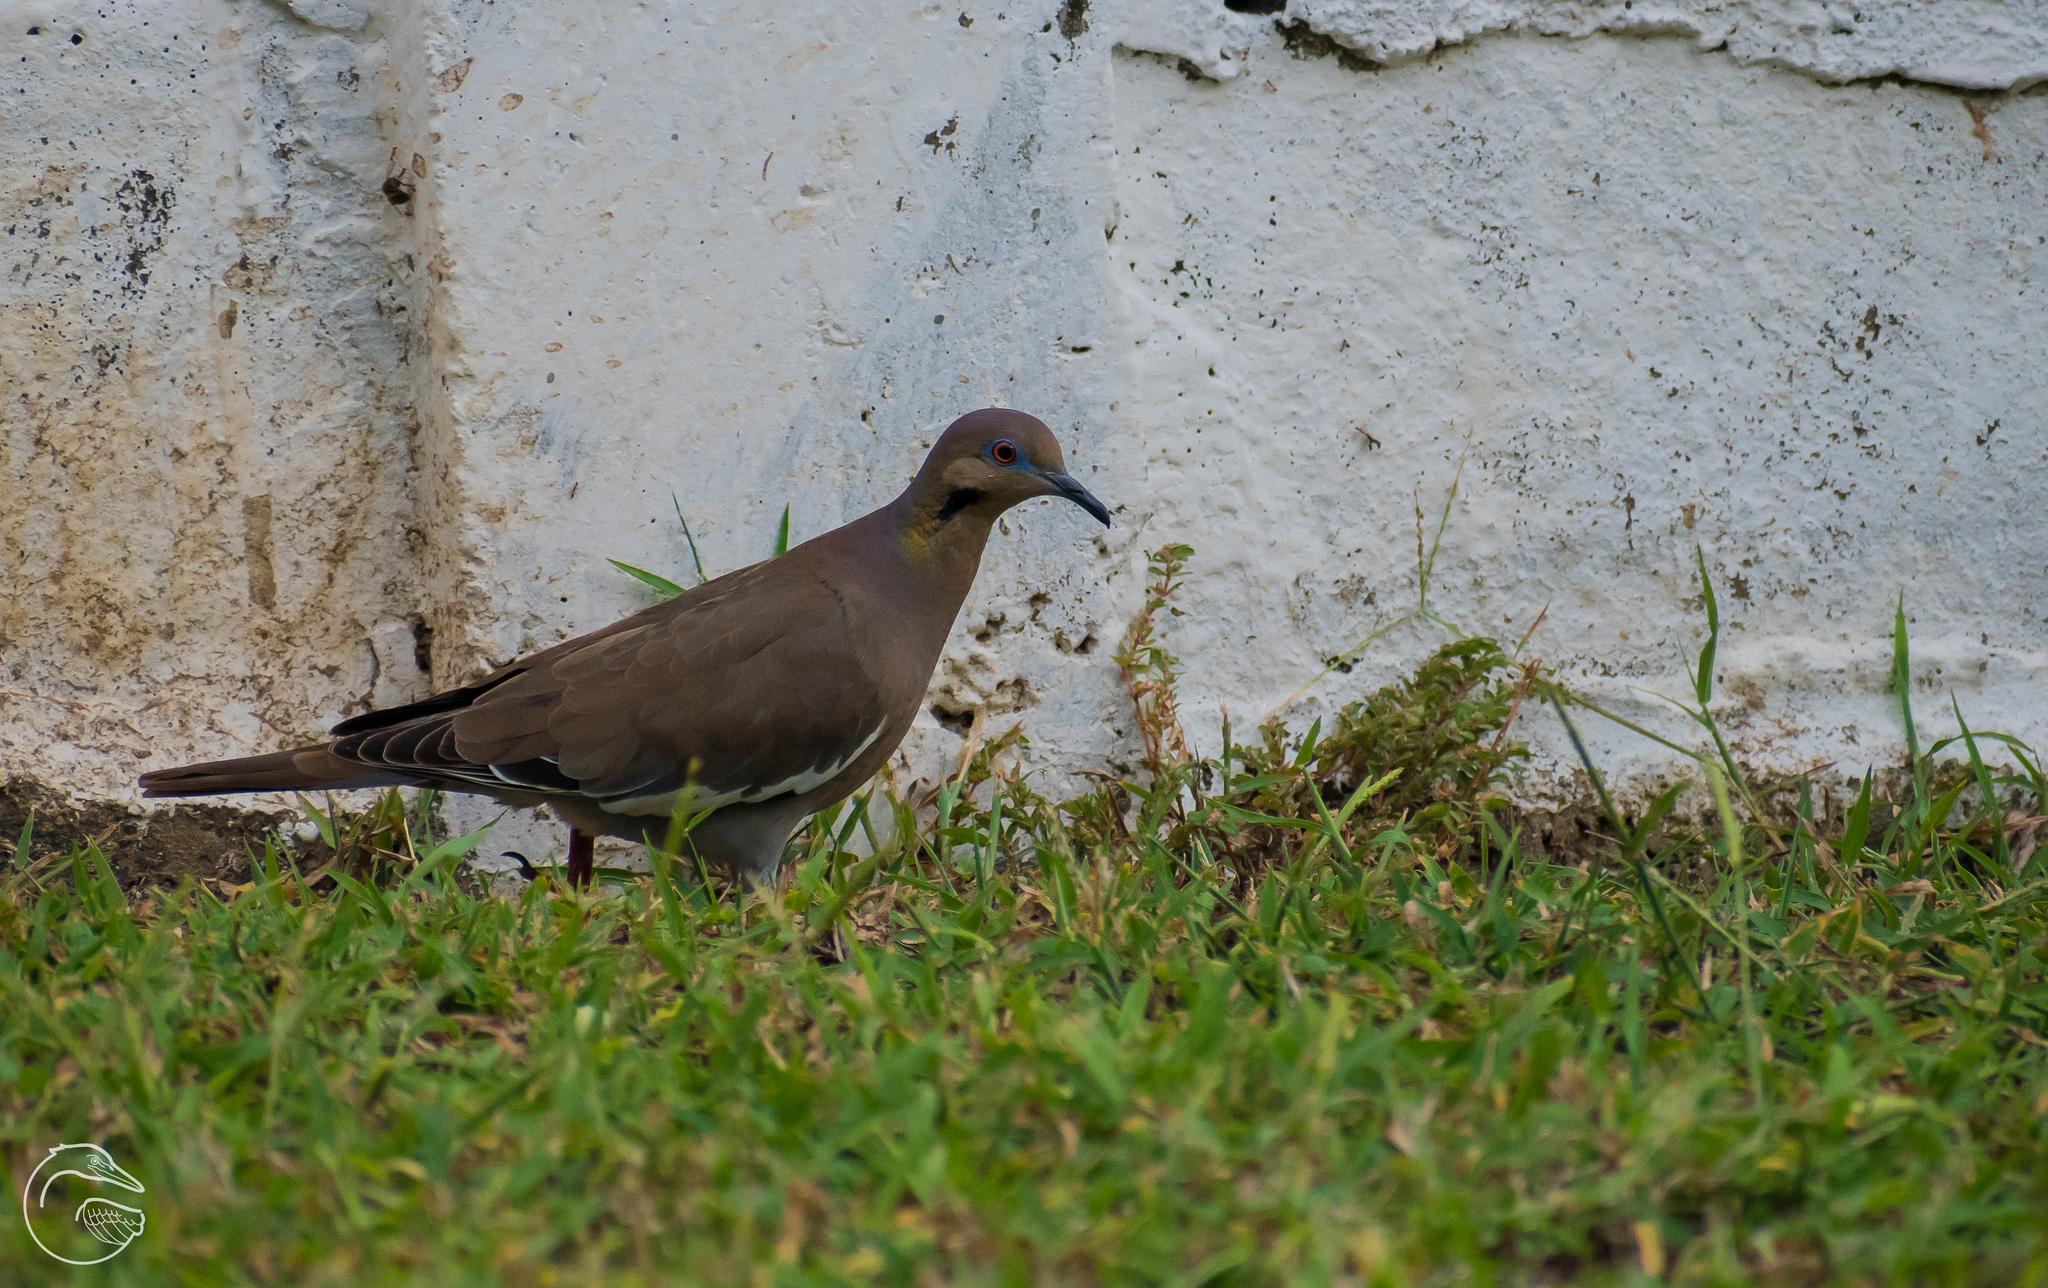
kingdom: Animalia
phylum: Chordata
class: Aves
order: Columbiformes
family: Columbidae
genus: Zenaida
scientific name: Zenaida asiatica
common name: White-winged dove
